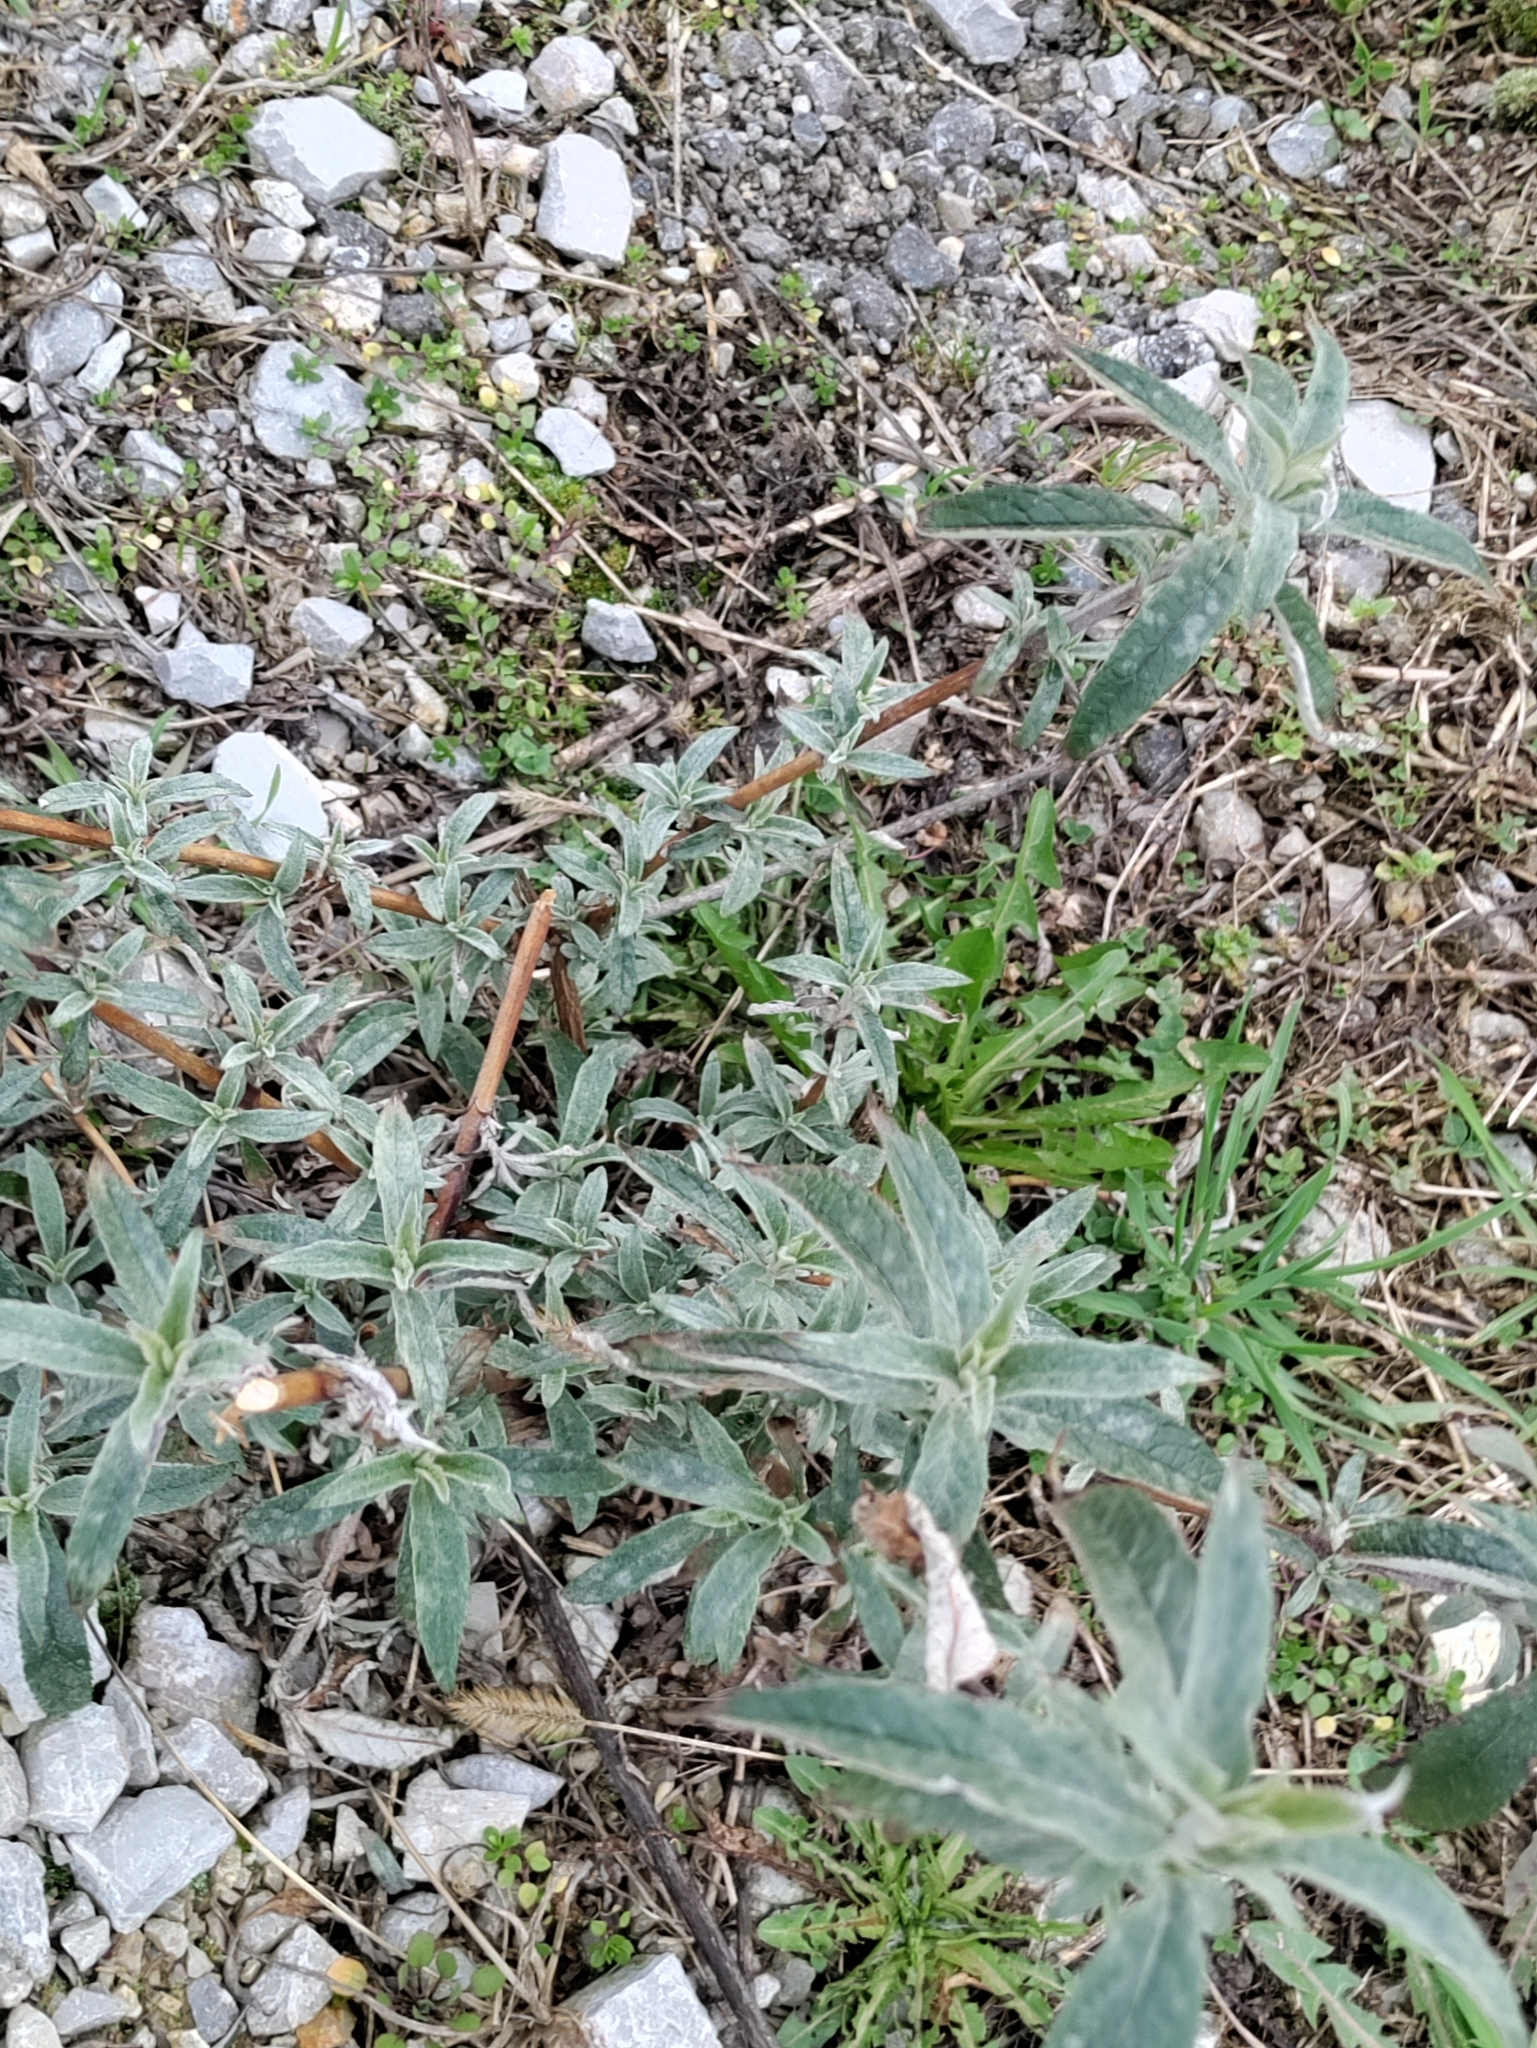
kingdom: Plantae
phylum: Tracheophyta
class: Magnoliopsida
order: Lamiales
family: Scrophulariaceae
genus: Buddleja
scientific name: Buddleja davidii
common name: Butterfly-bush
